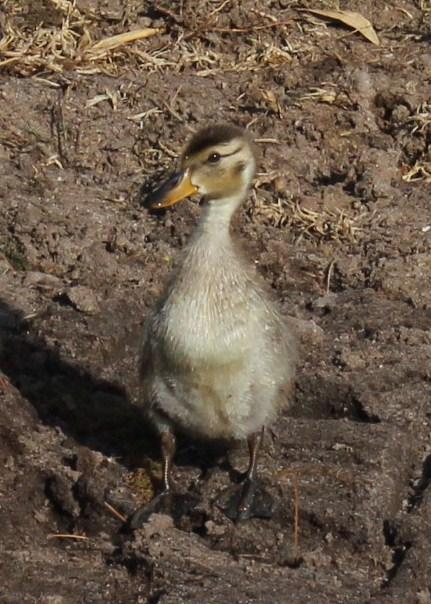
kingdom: Animalia
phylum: Chordata
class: Aves
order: Anseriformes
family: Anatidae
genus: Anas
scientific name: Anas undulata
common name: Yellow-billed duck
